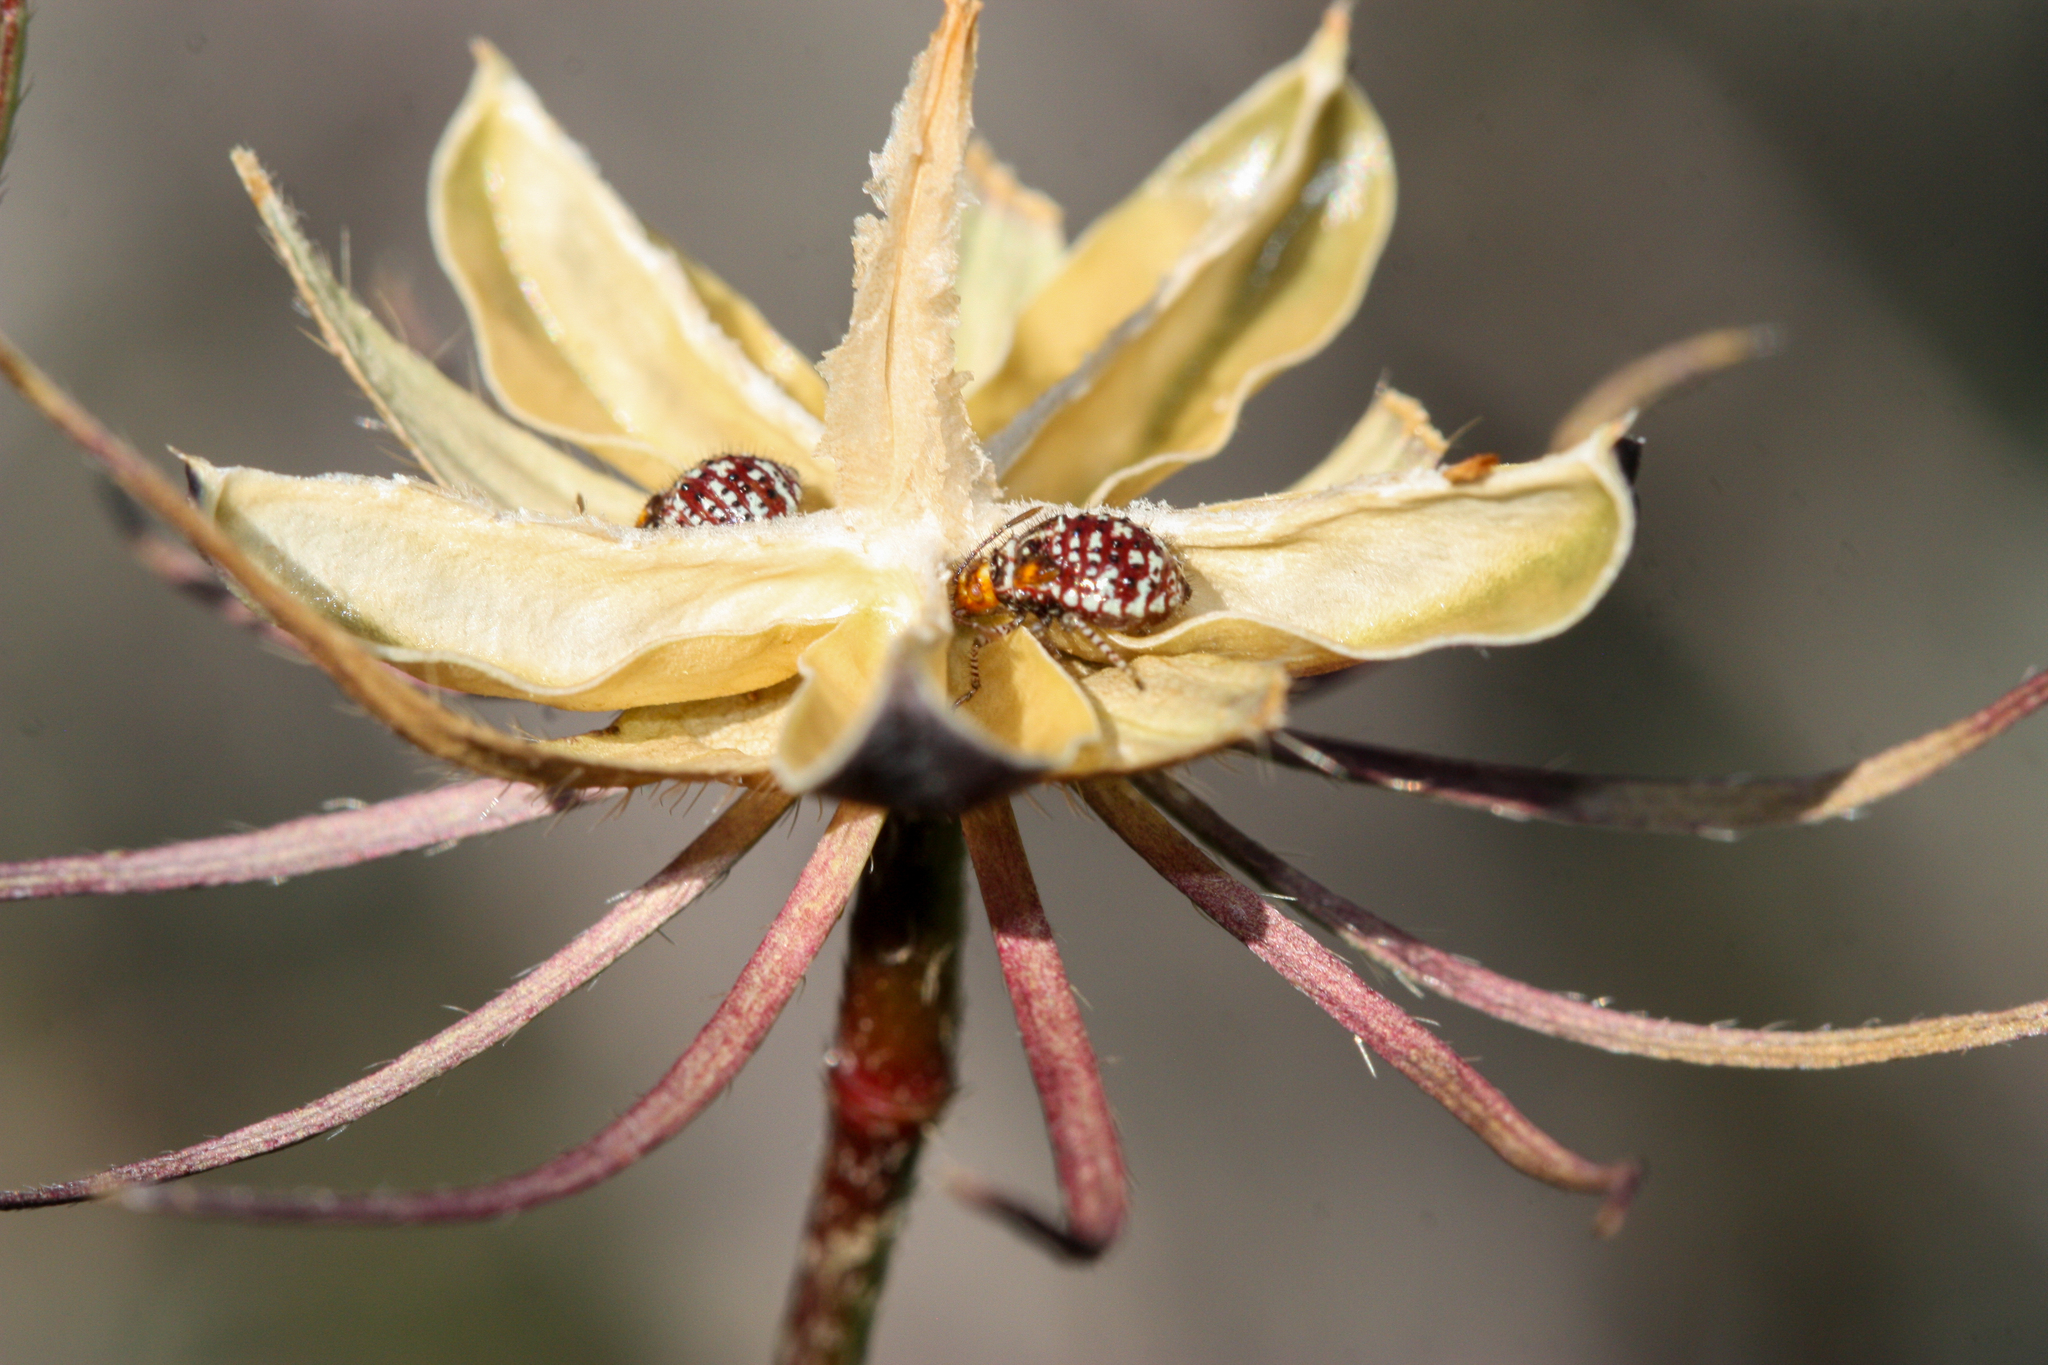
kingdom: Animalia
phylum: Arthropoda
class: Insecta
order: Hemiptera
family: Rhopalidae
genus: Niesthrea
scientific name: Niesthrea louisianica
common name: Scentless plant bug
